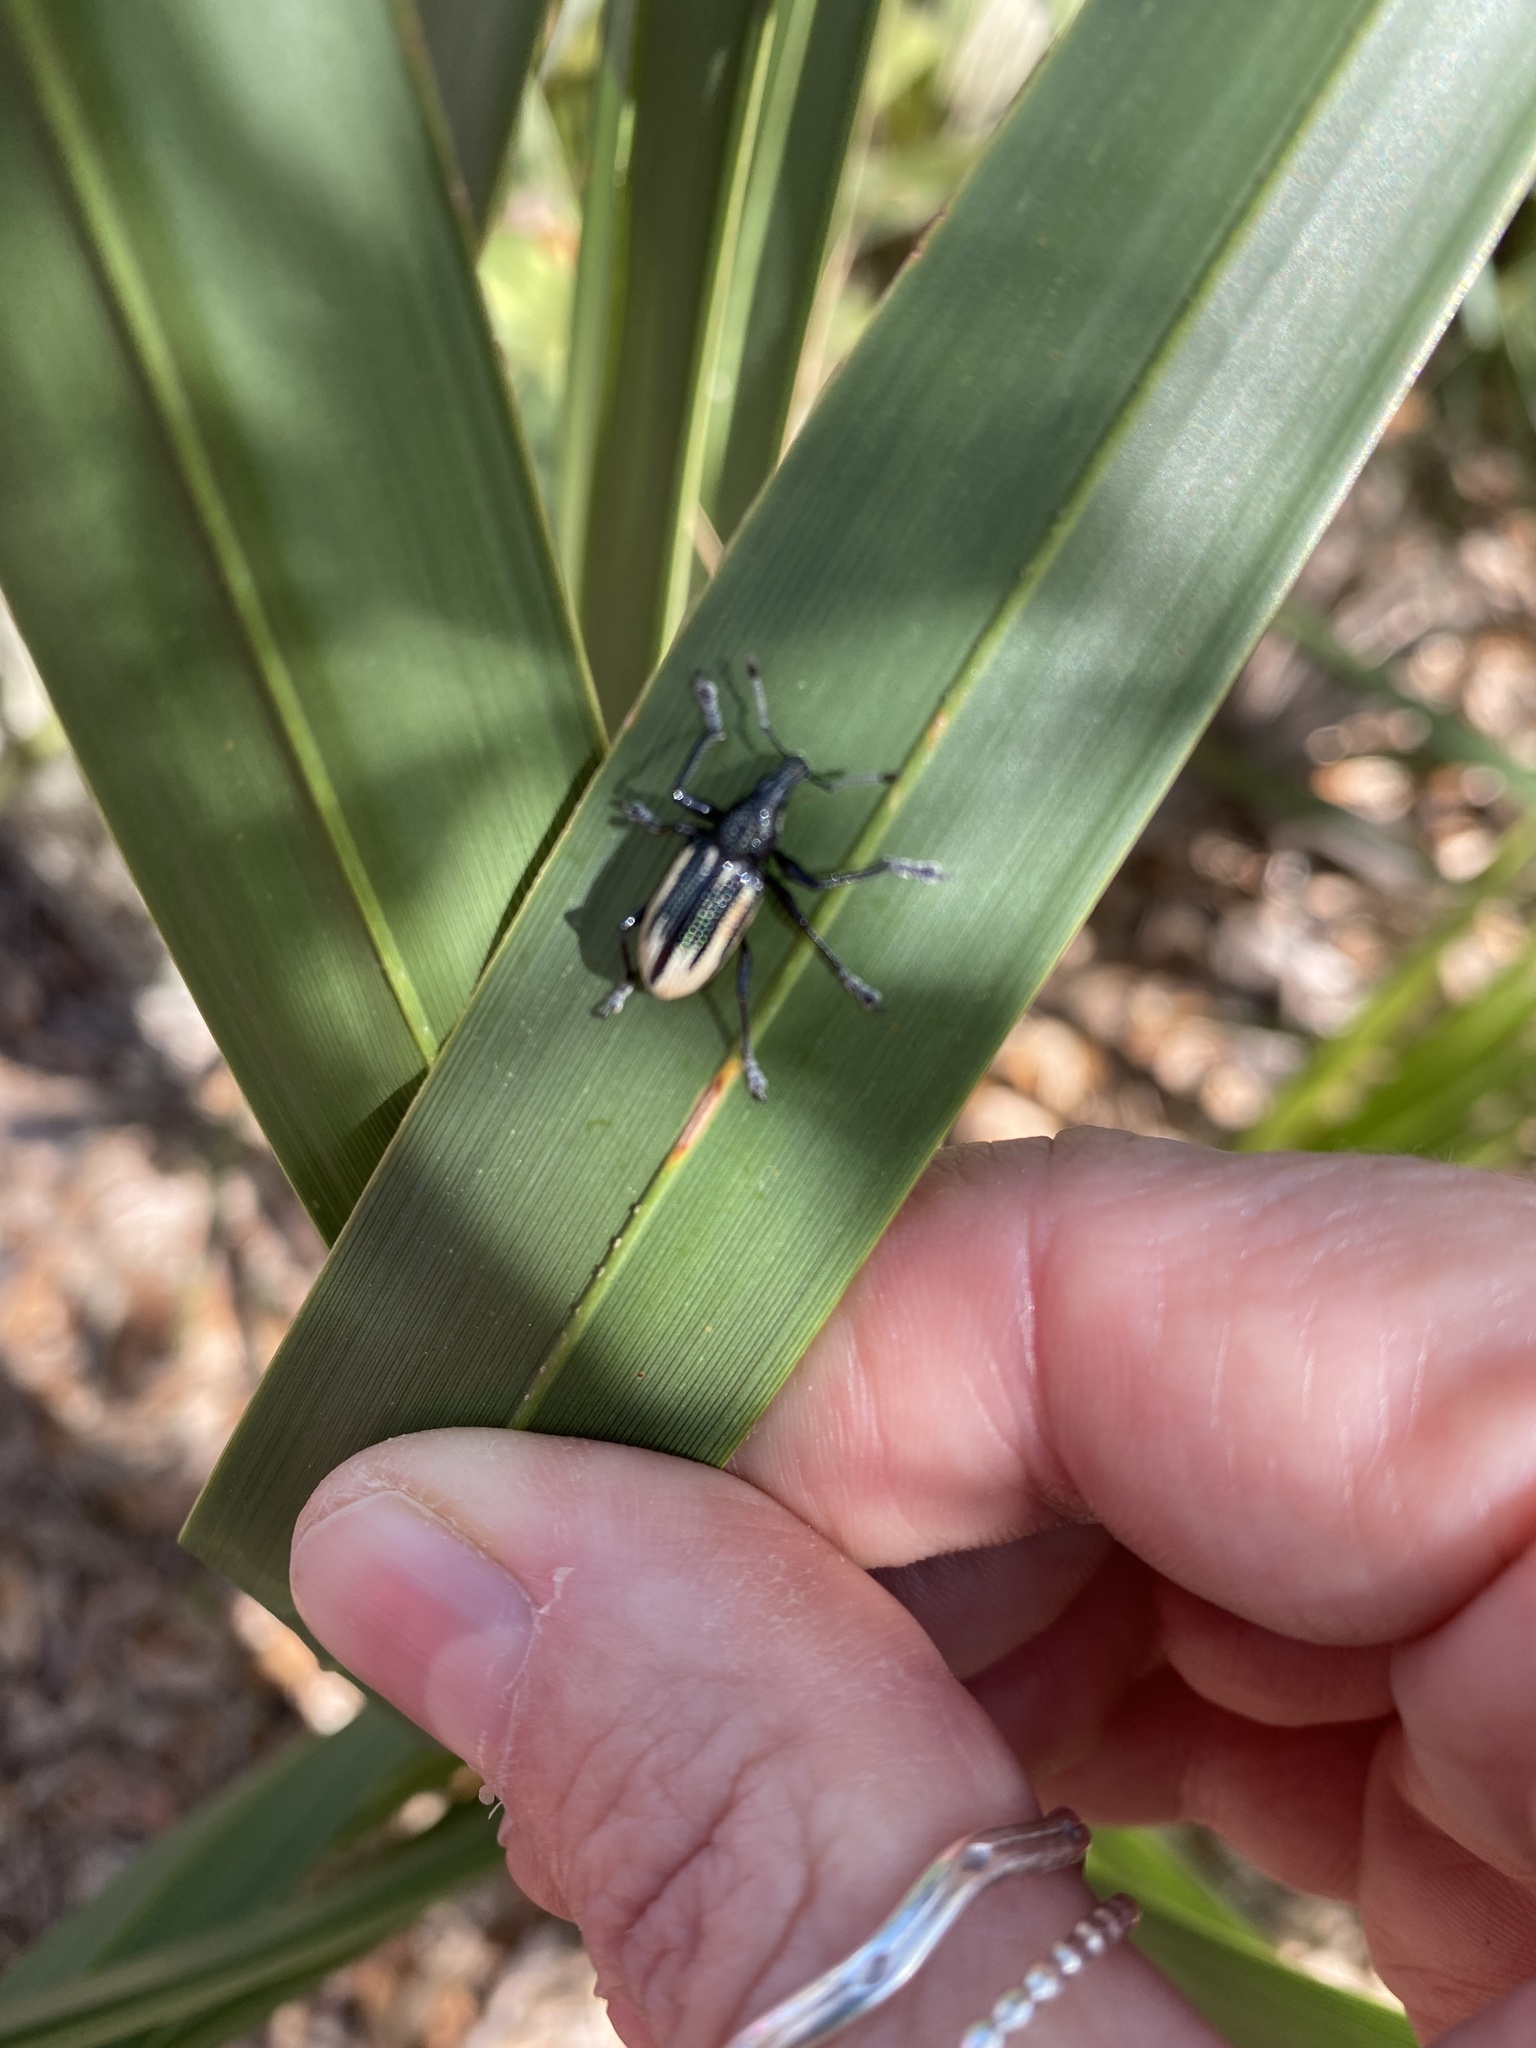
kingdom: Animalia
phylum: Arthropoda
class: Insecta
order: Coleoptera
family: Curculionidae
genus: Diaprepes
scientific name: Diaprepes abbreviatus
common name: Root weevil
